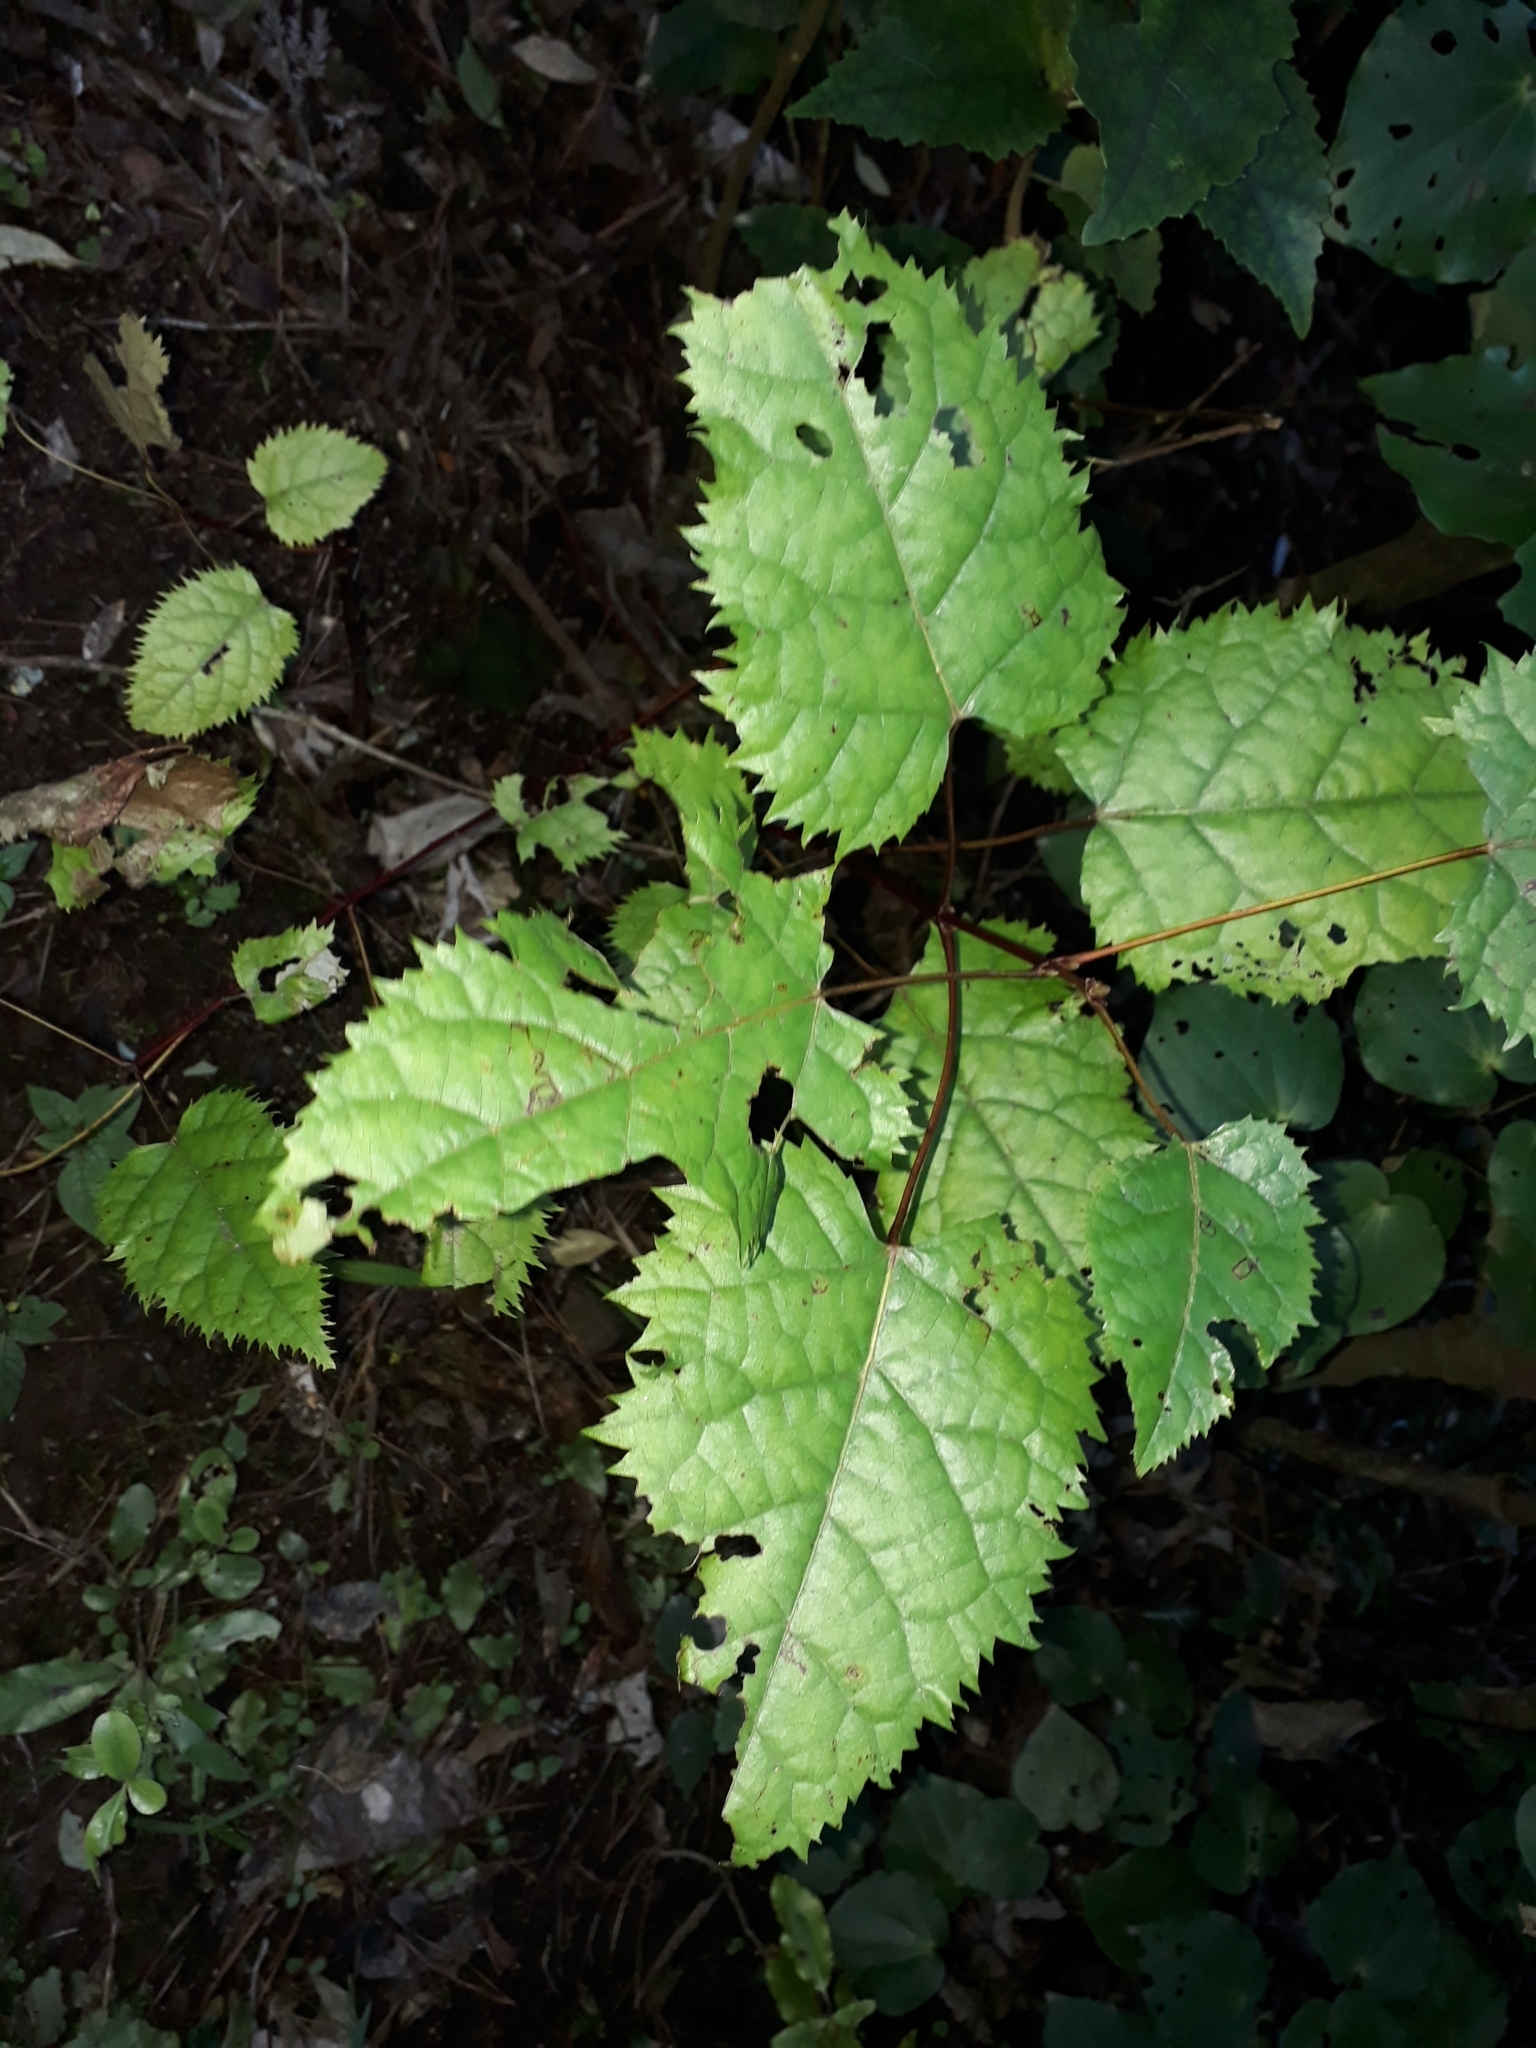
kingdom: Plantae
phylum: Tracheophyta
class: Magnoliopsida
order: Oxalidales
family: Elaeocarpaceae
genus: Aristotelia
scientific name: Aristotelia serrata
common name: New zealand wineberry
